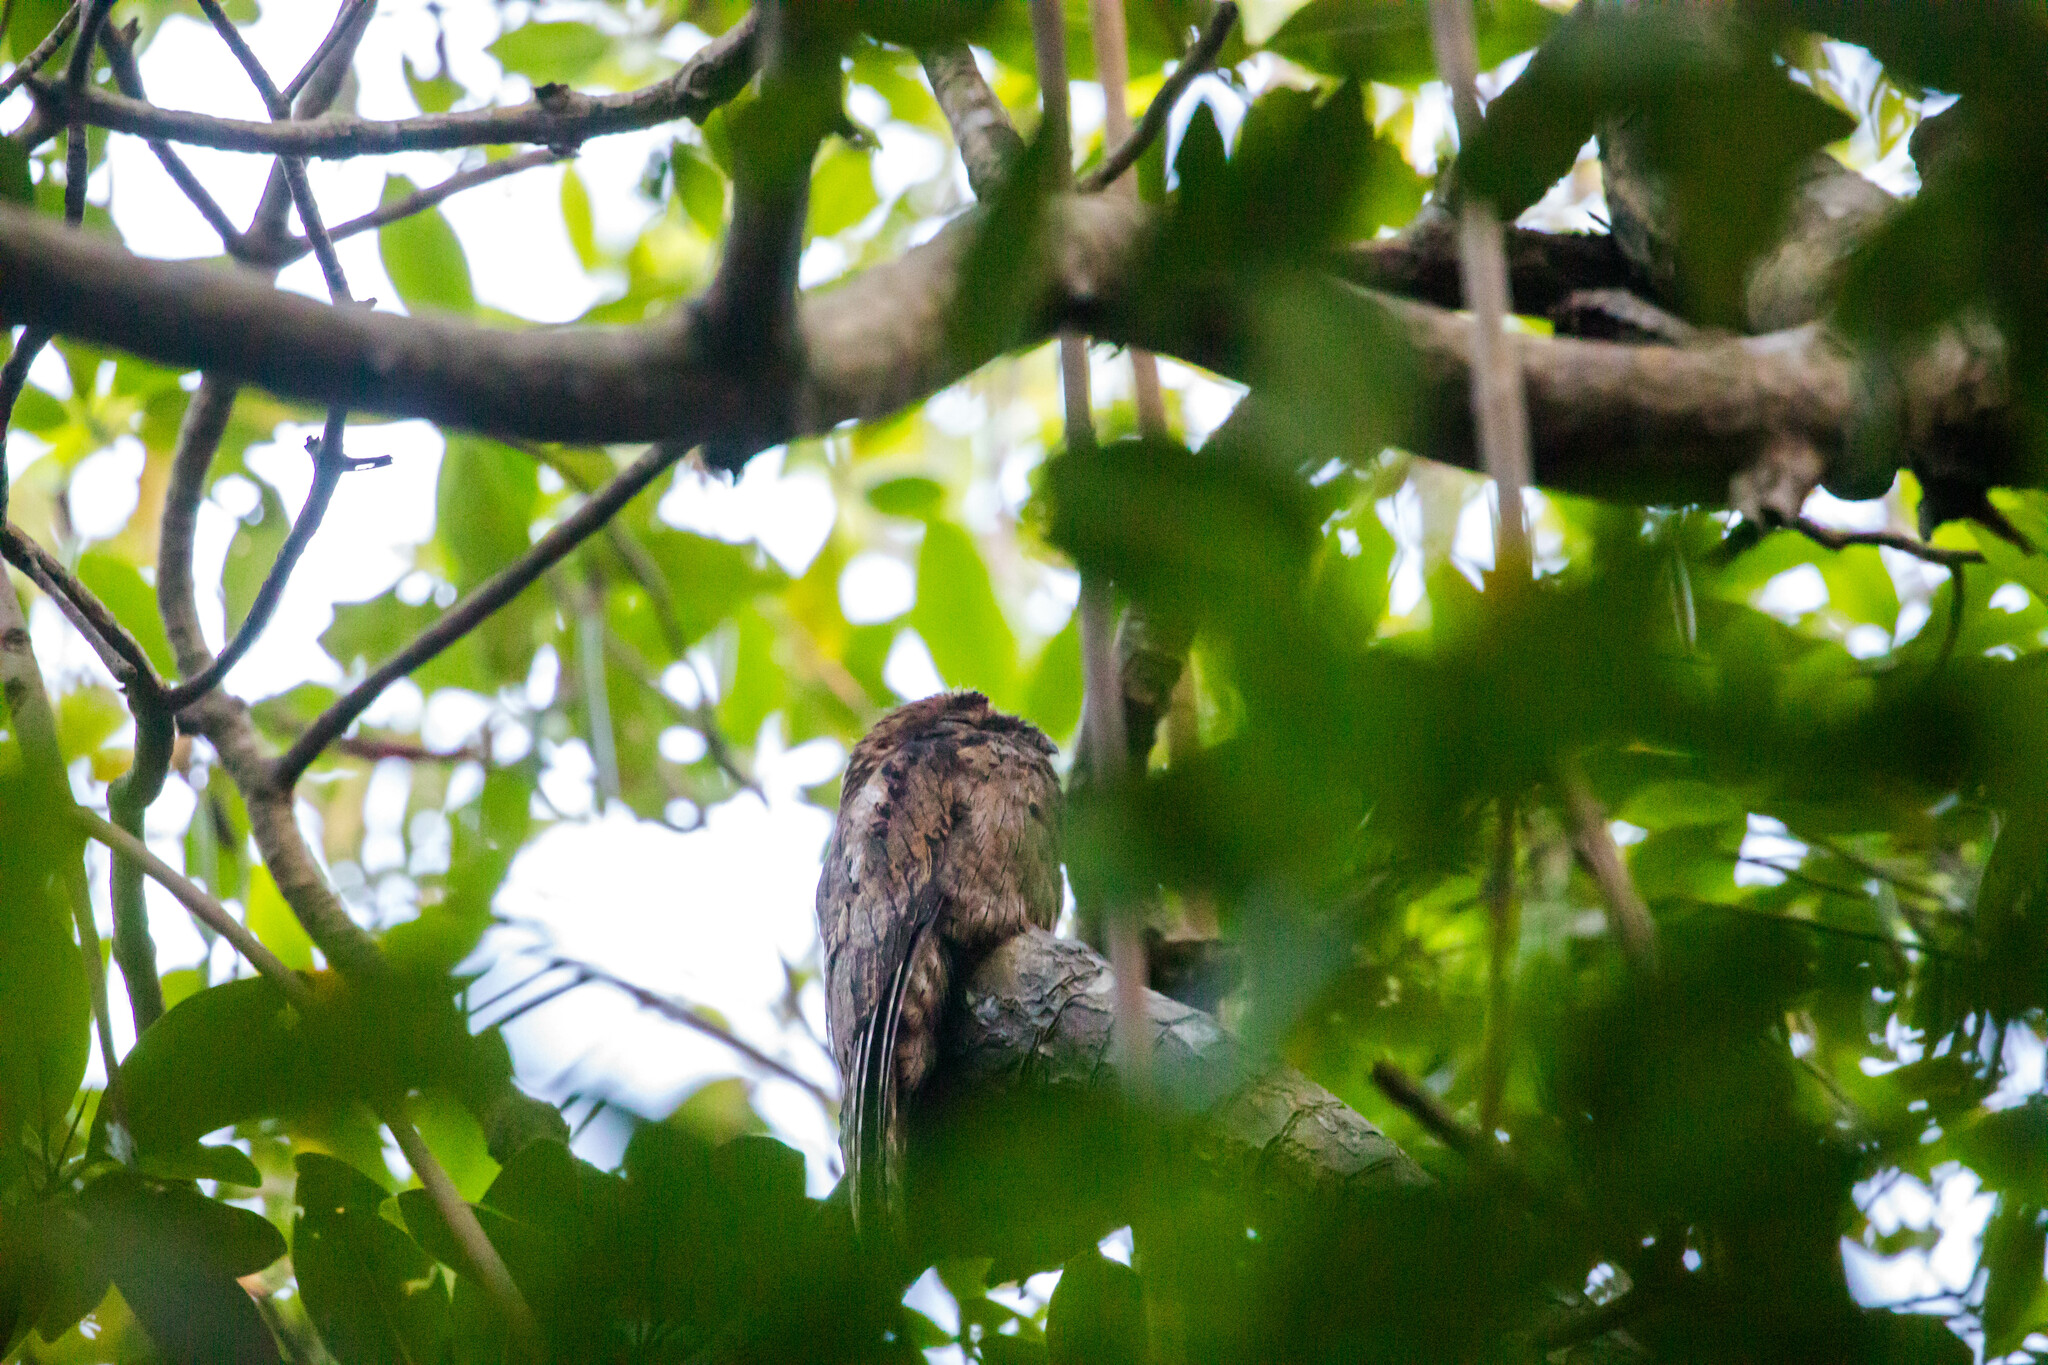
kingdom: Animalia
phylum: Chordata
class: Aves
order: Nyctibiiformes
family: Nyctibiidae
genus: Nyctibius
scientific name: Nyctibius griseus
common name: Common potoo
